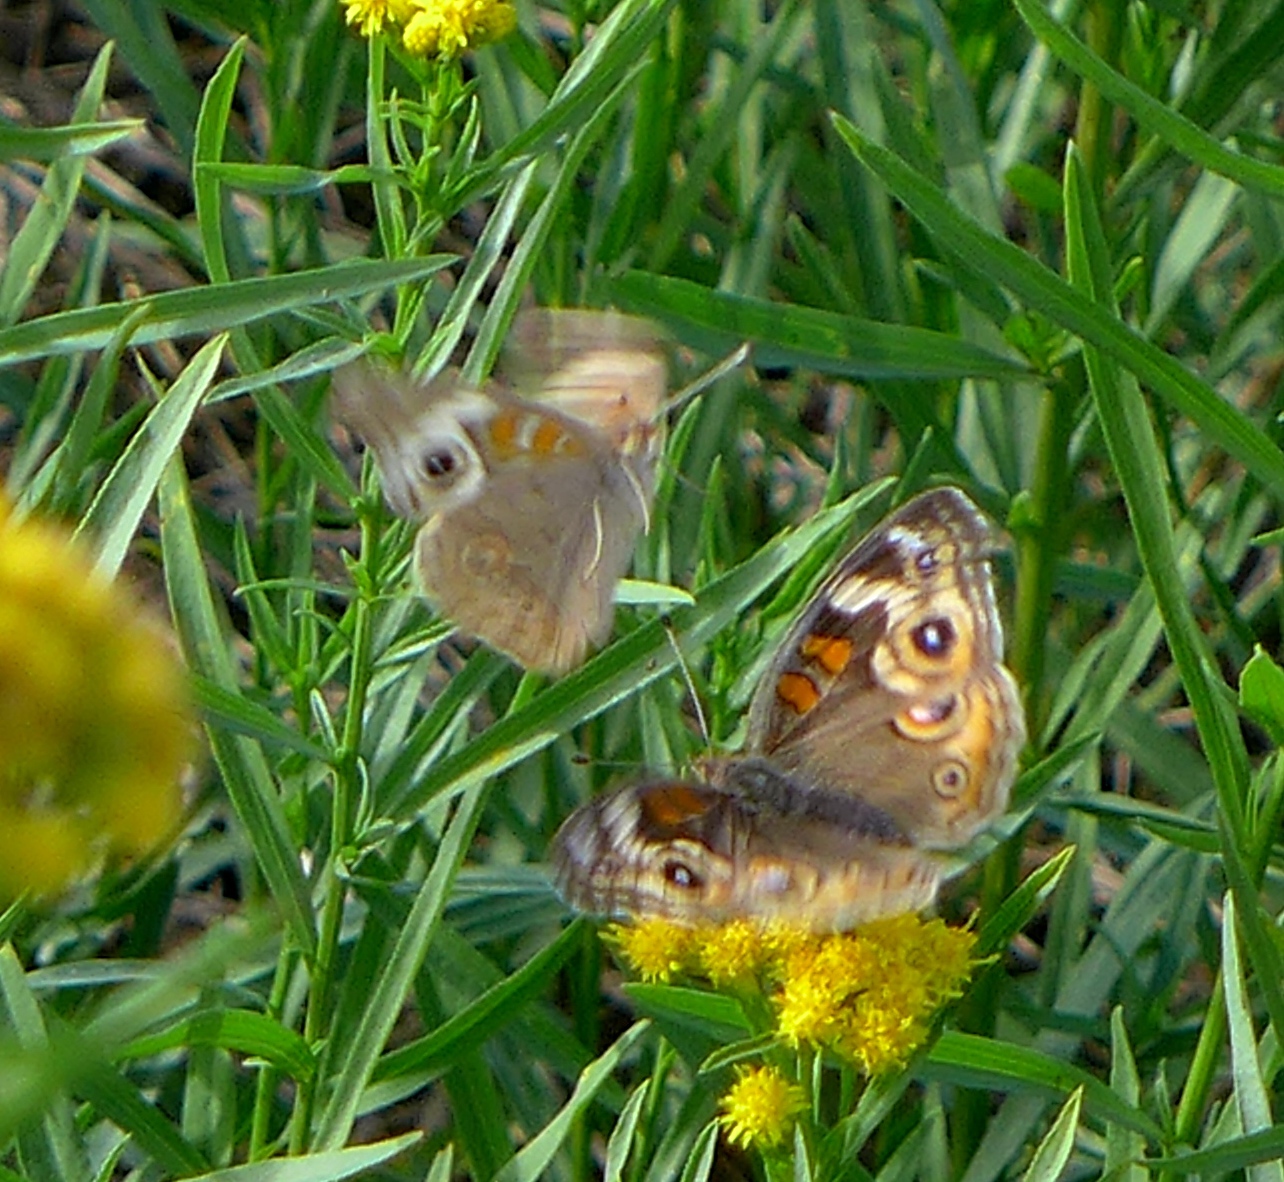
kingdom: Animalia
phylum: Arthropoda
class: Insecta
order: Lepidoptera
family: Nymphalidae
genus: Junonia
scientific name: Junonia grisea
